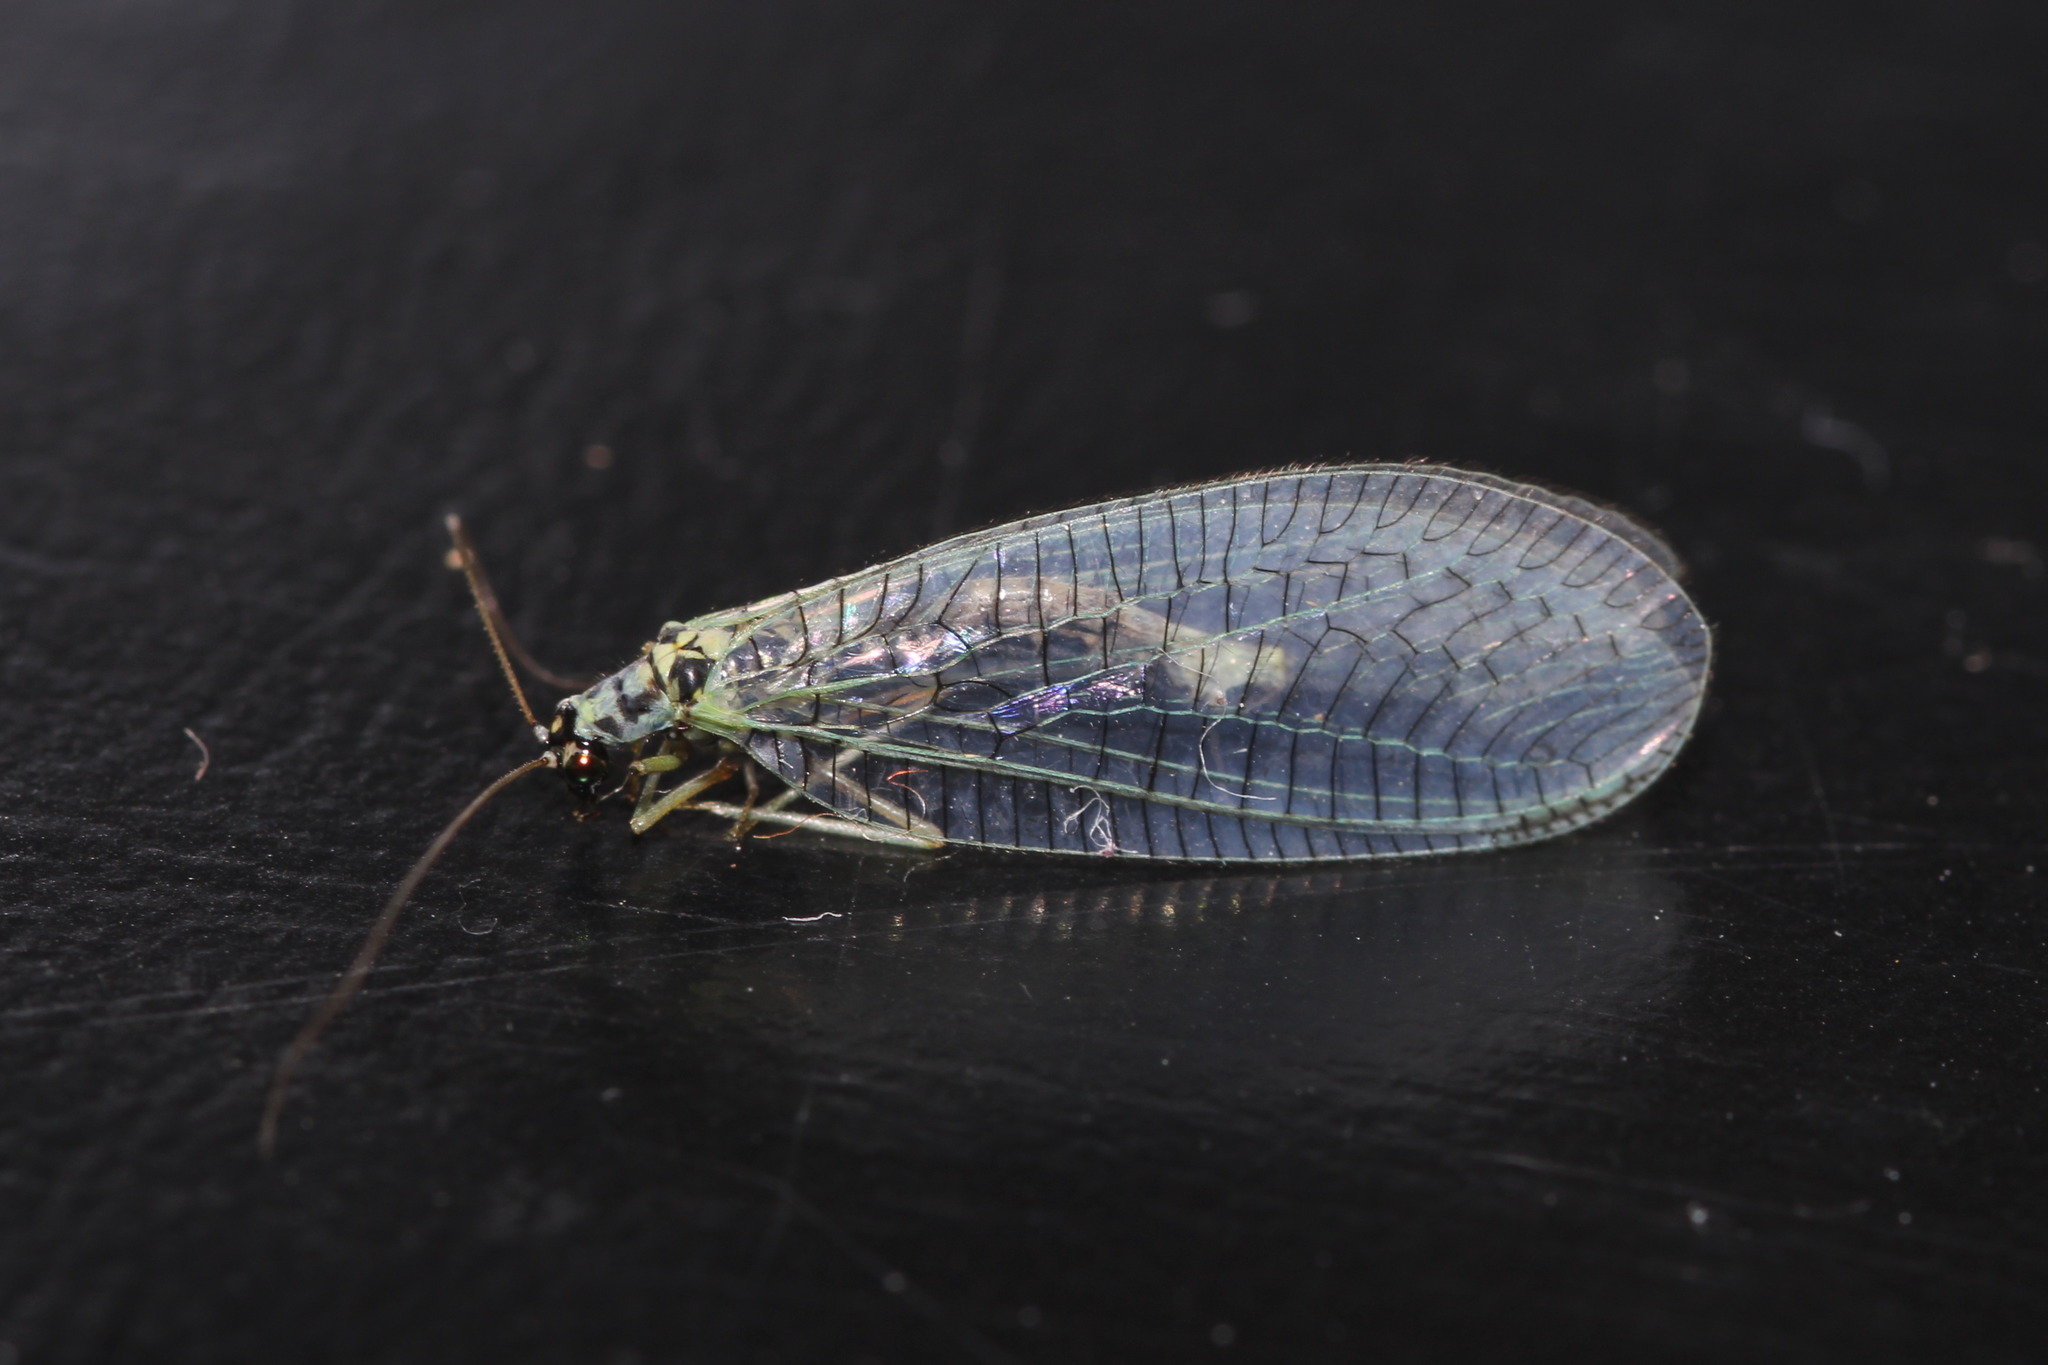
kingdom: Animalia
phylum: Arthropoda
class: Insecta
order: Neuroptera
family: Chrysopidae
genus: Chrysopa
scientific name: Chrysopa perla
